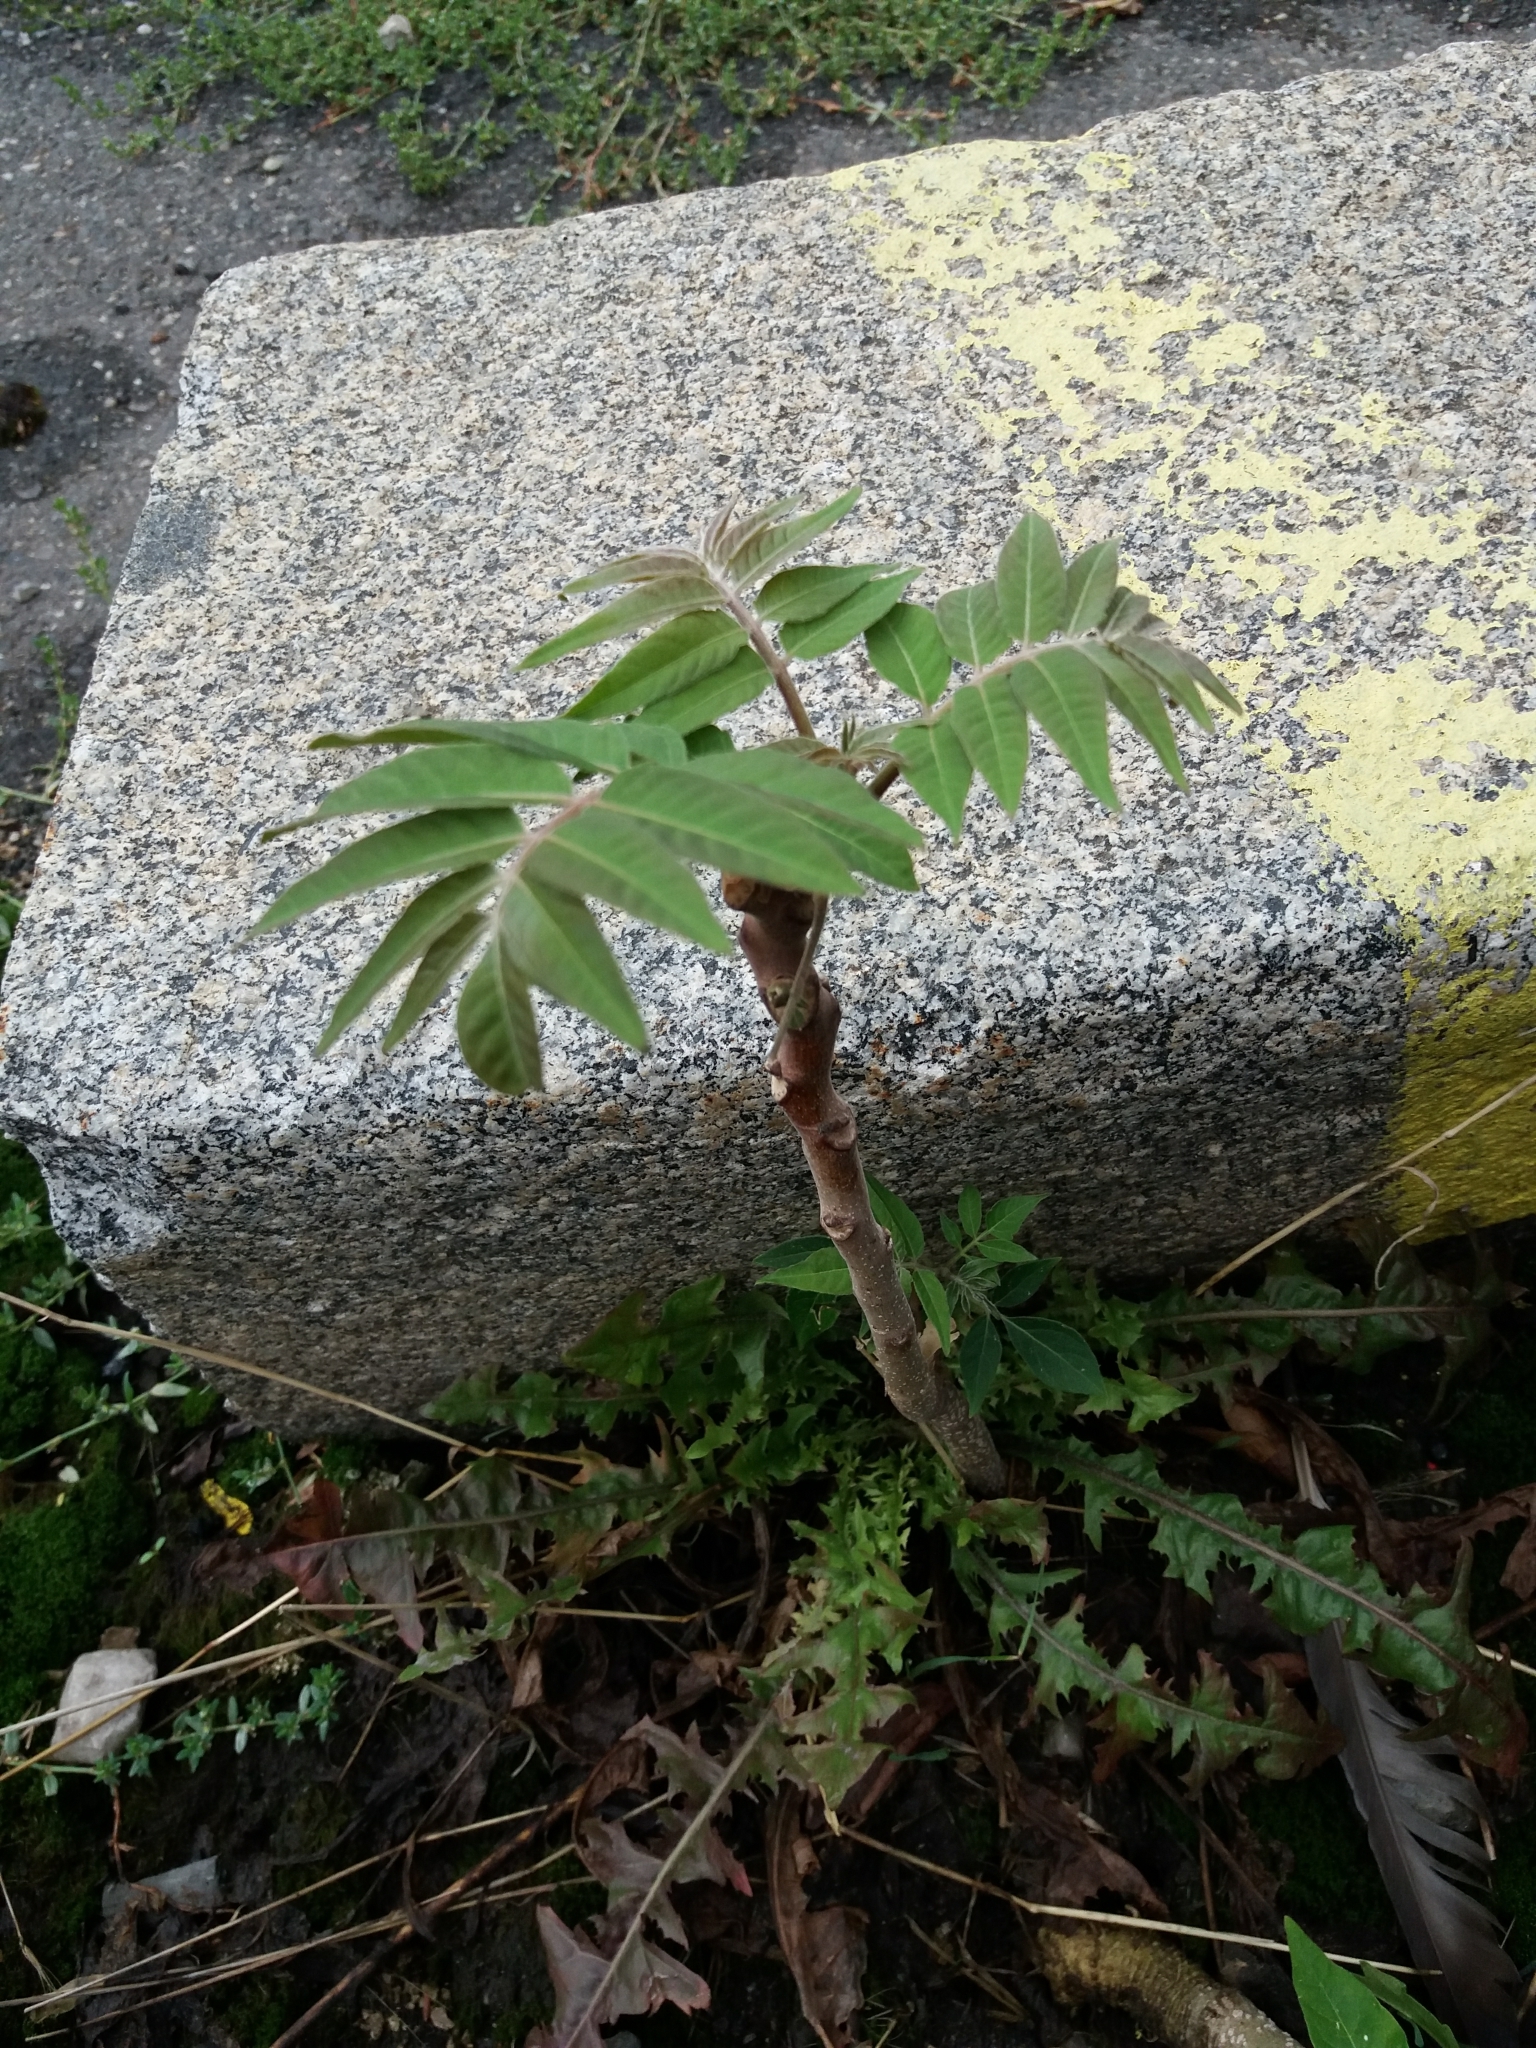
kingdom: Plantae
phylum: Tracheophyta
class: Magnoliopsida
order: Sapindales
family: Simaroubaceae
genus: Ailanthus
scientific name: Ailanthus altissima
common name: Tree-of-heaven
